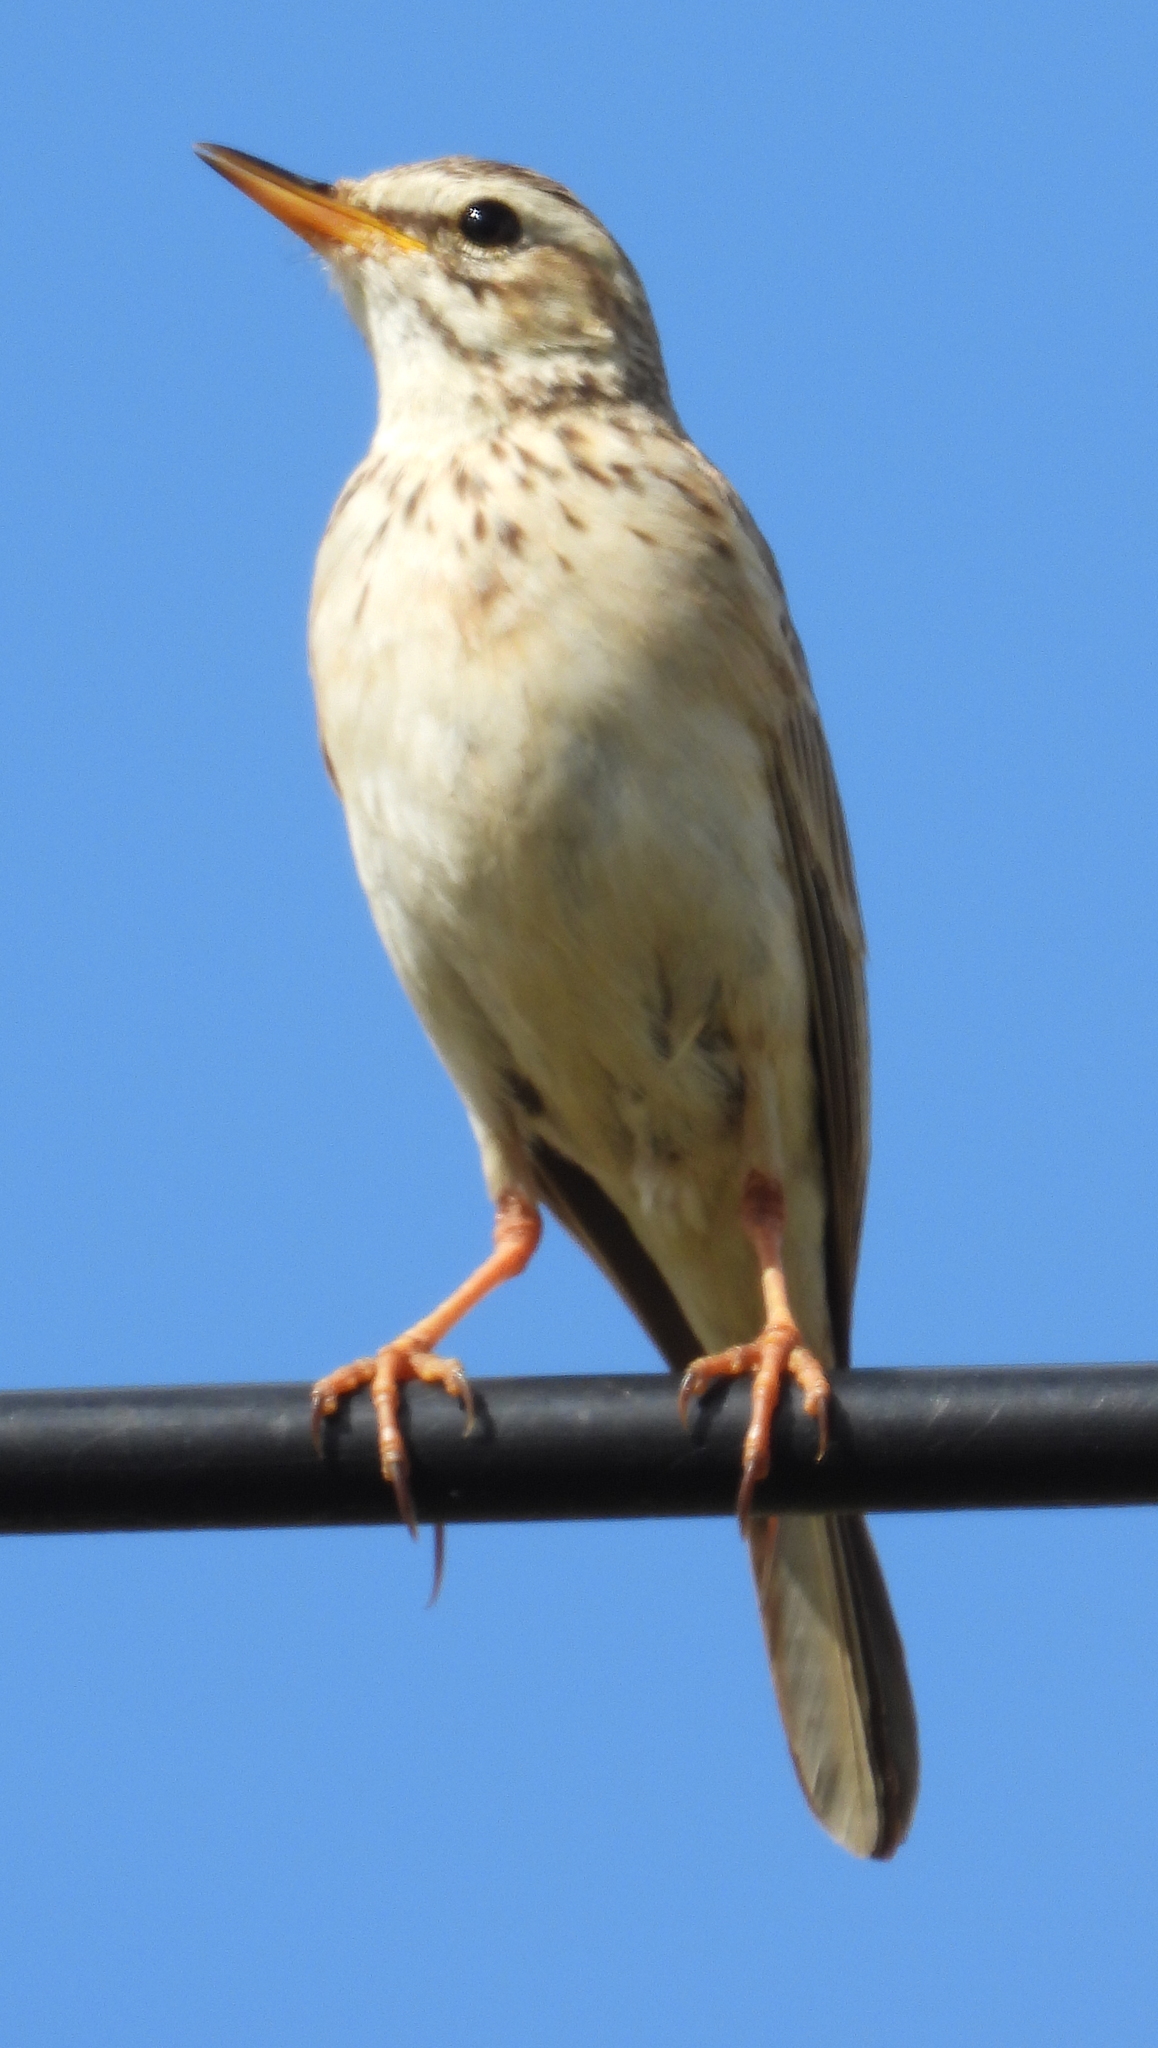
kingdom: Animalia
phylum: Chordata
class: Aves
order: Passeriformes
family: Motacillidae
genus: Anthus
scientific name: Anthus cinnamomeus
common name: African pipit
